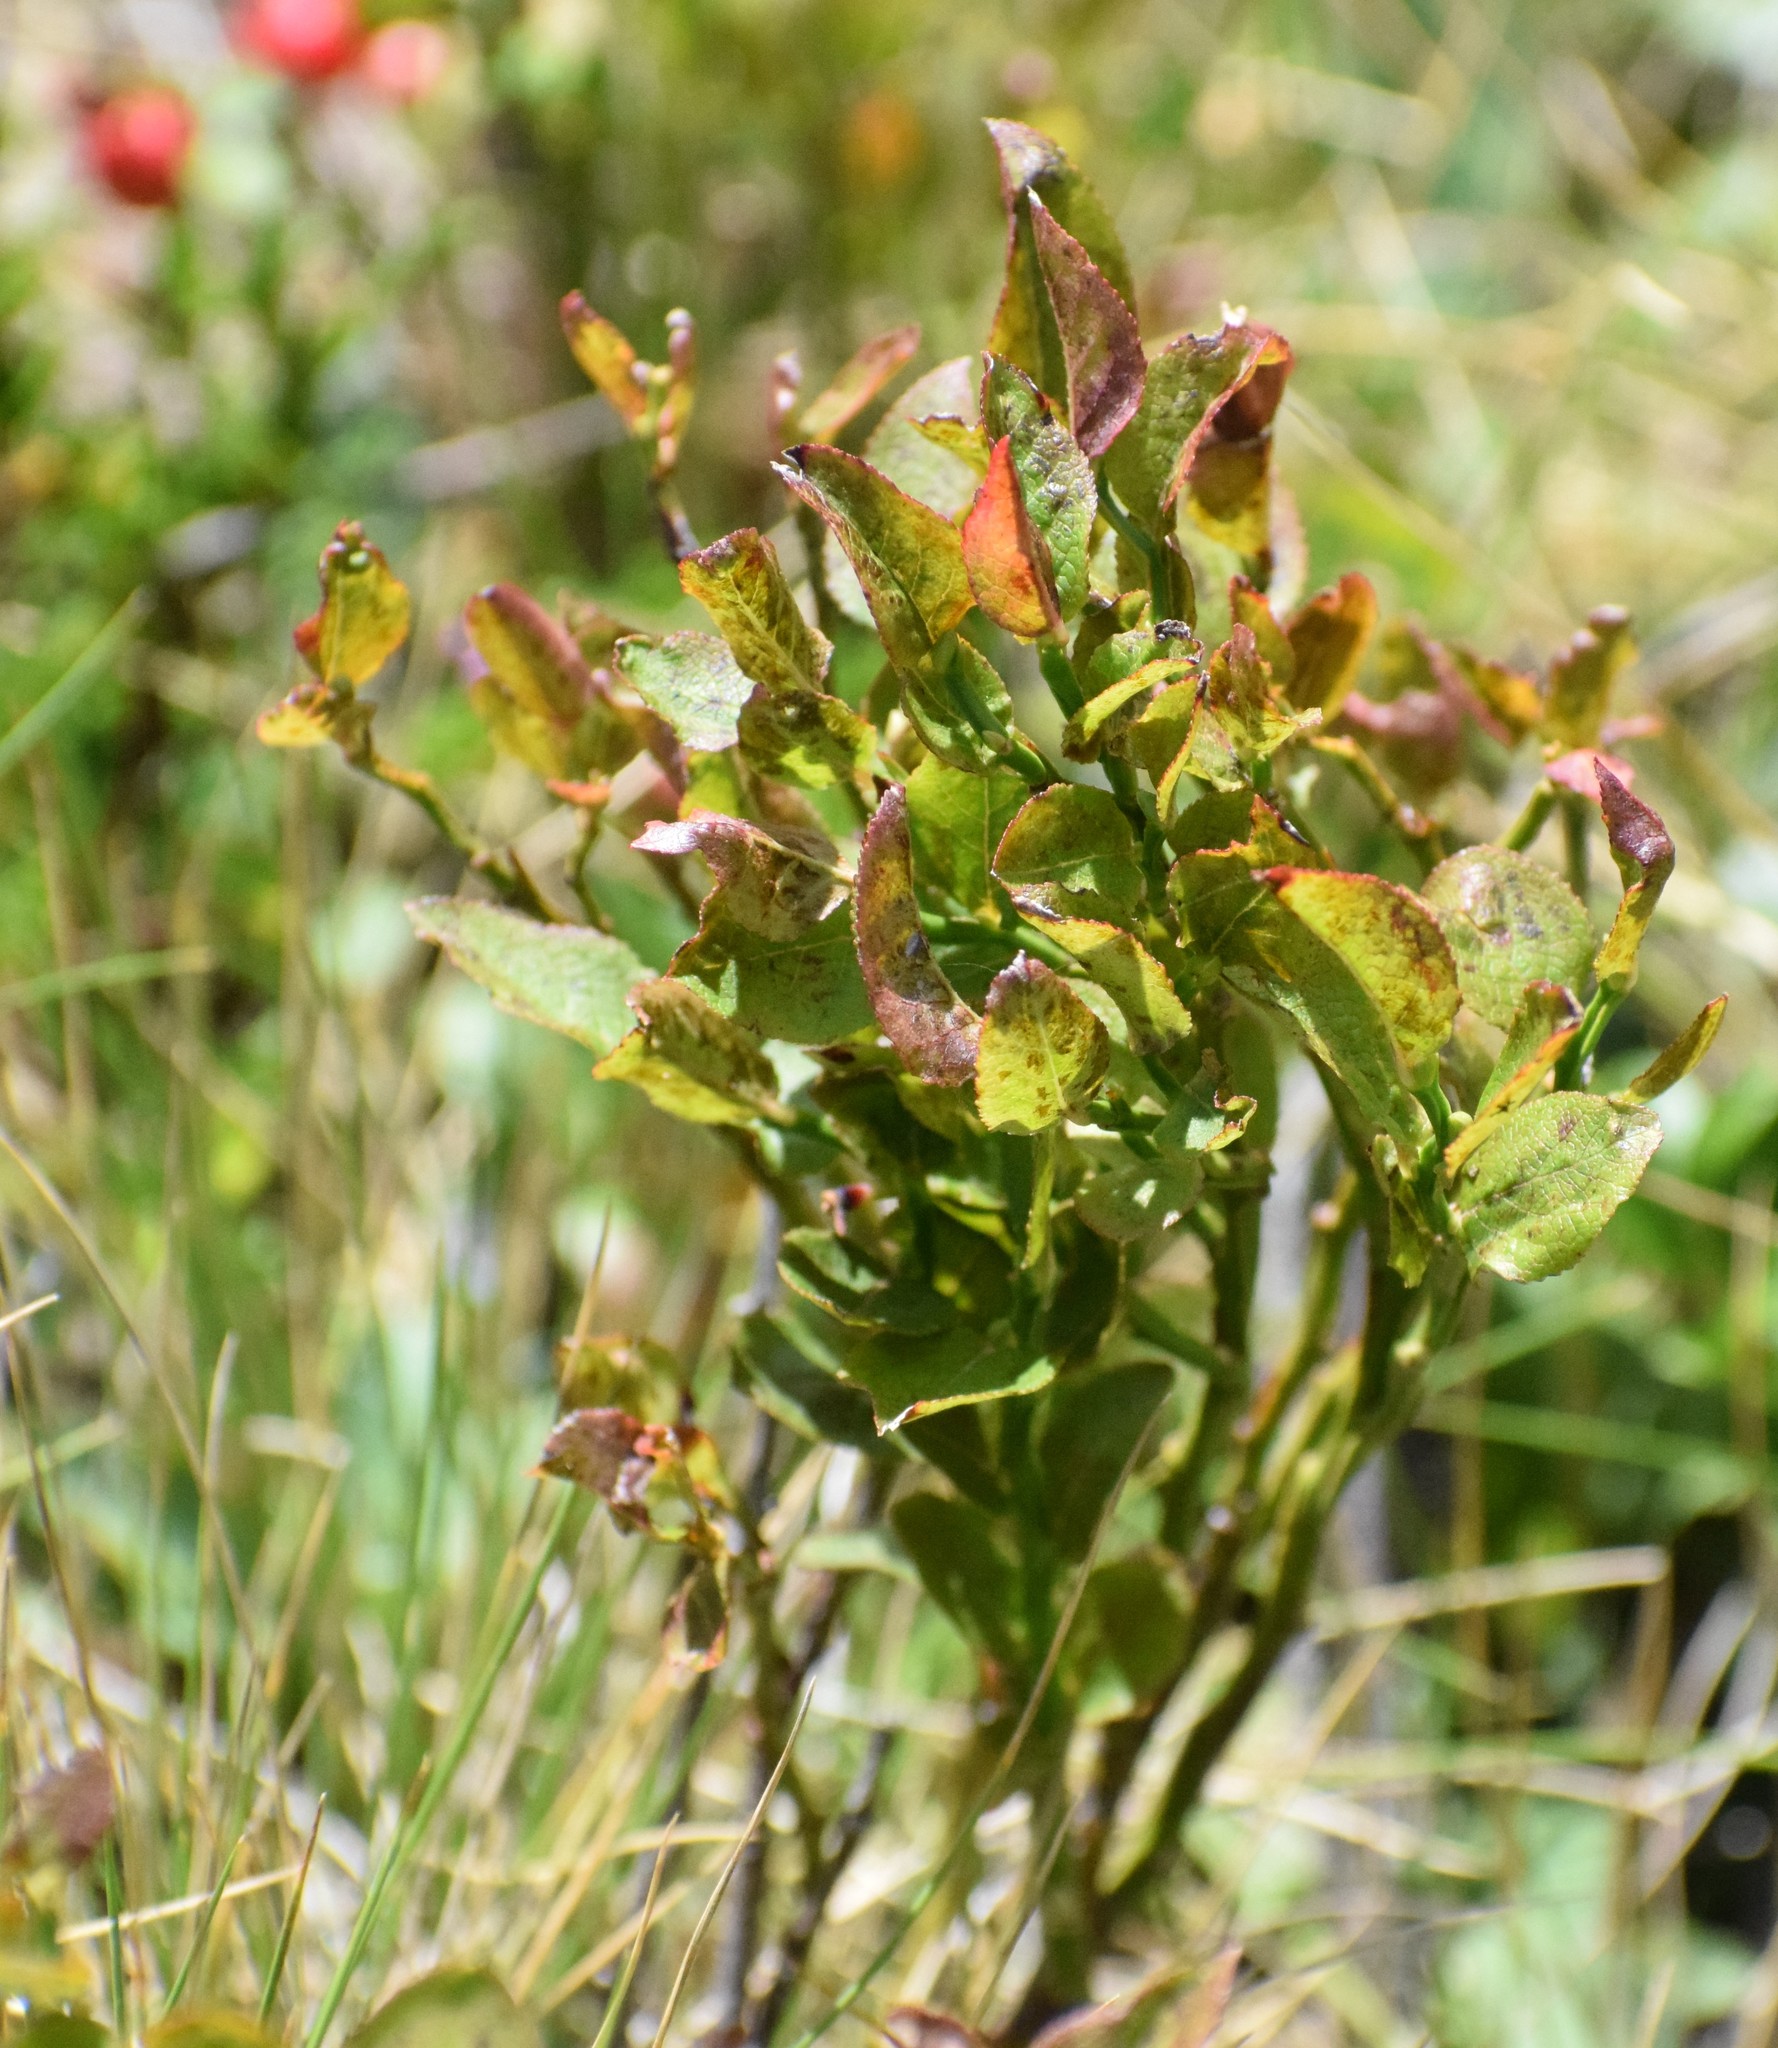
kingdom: Plantae
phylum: Tracheophyta
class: Magnoliopsida
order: Ericales
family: Ericaceae
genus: Vaccinium
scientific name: Vaccinium myrtillus
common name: Bilberry
